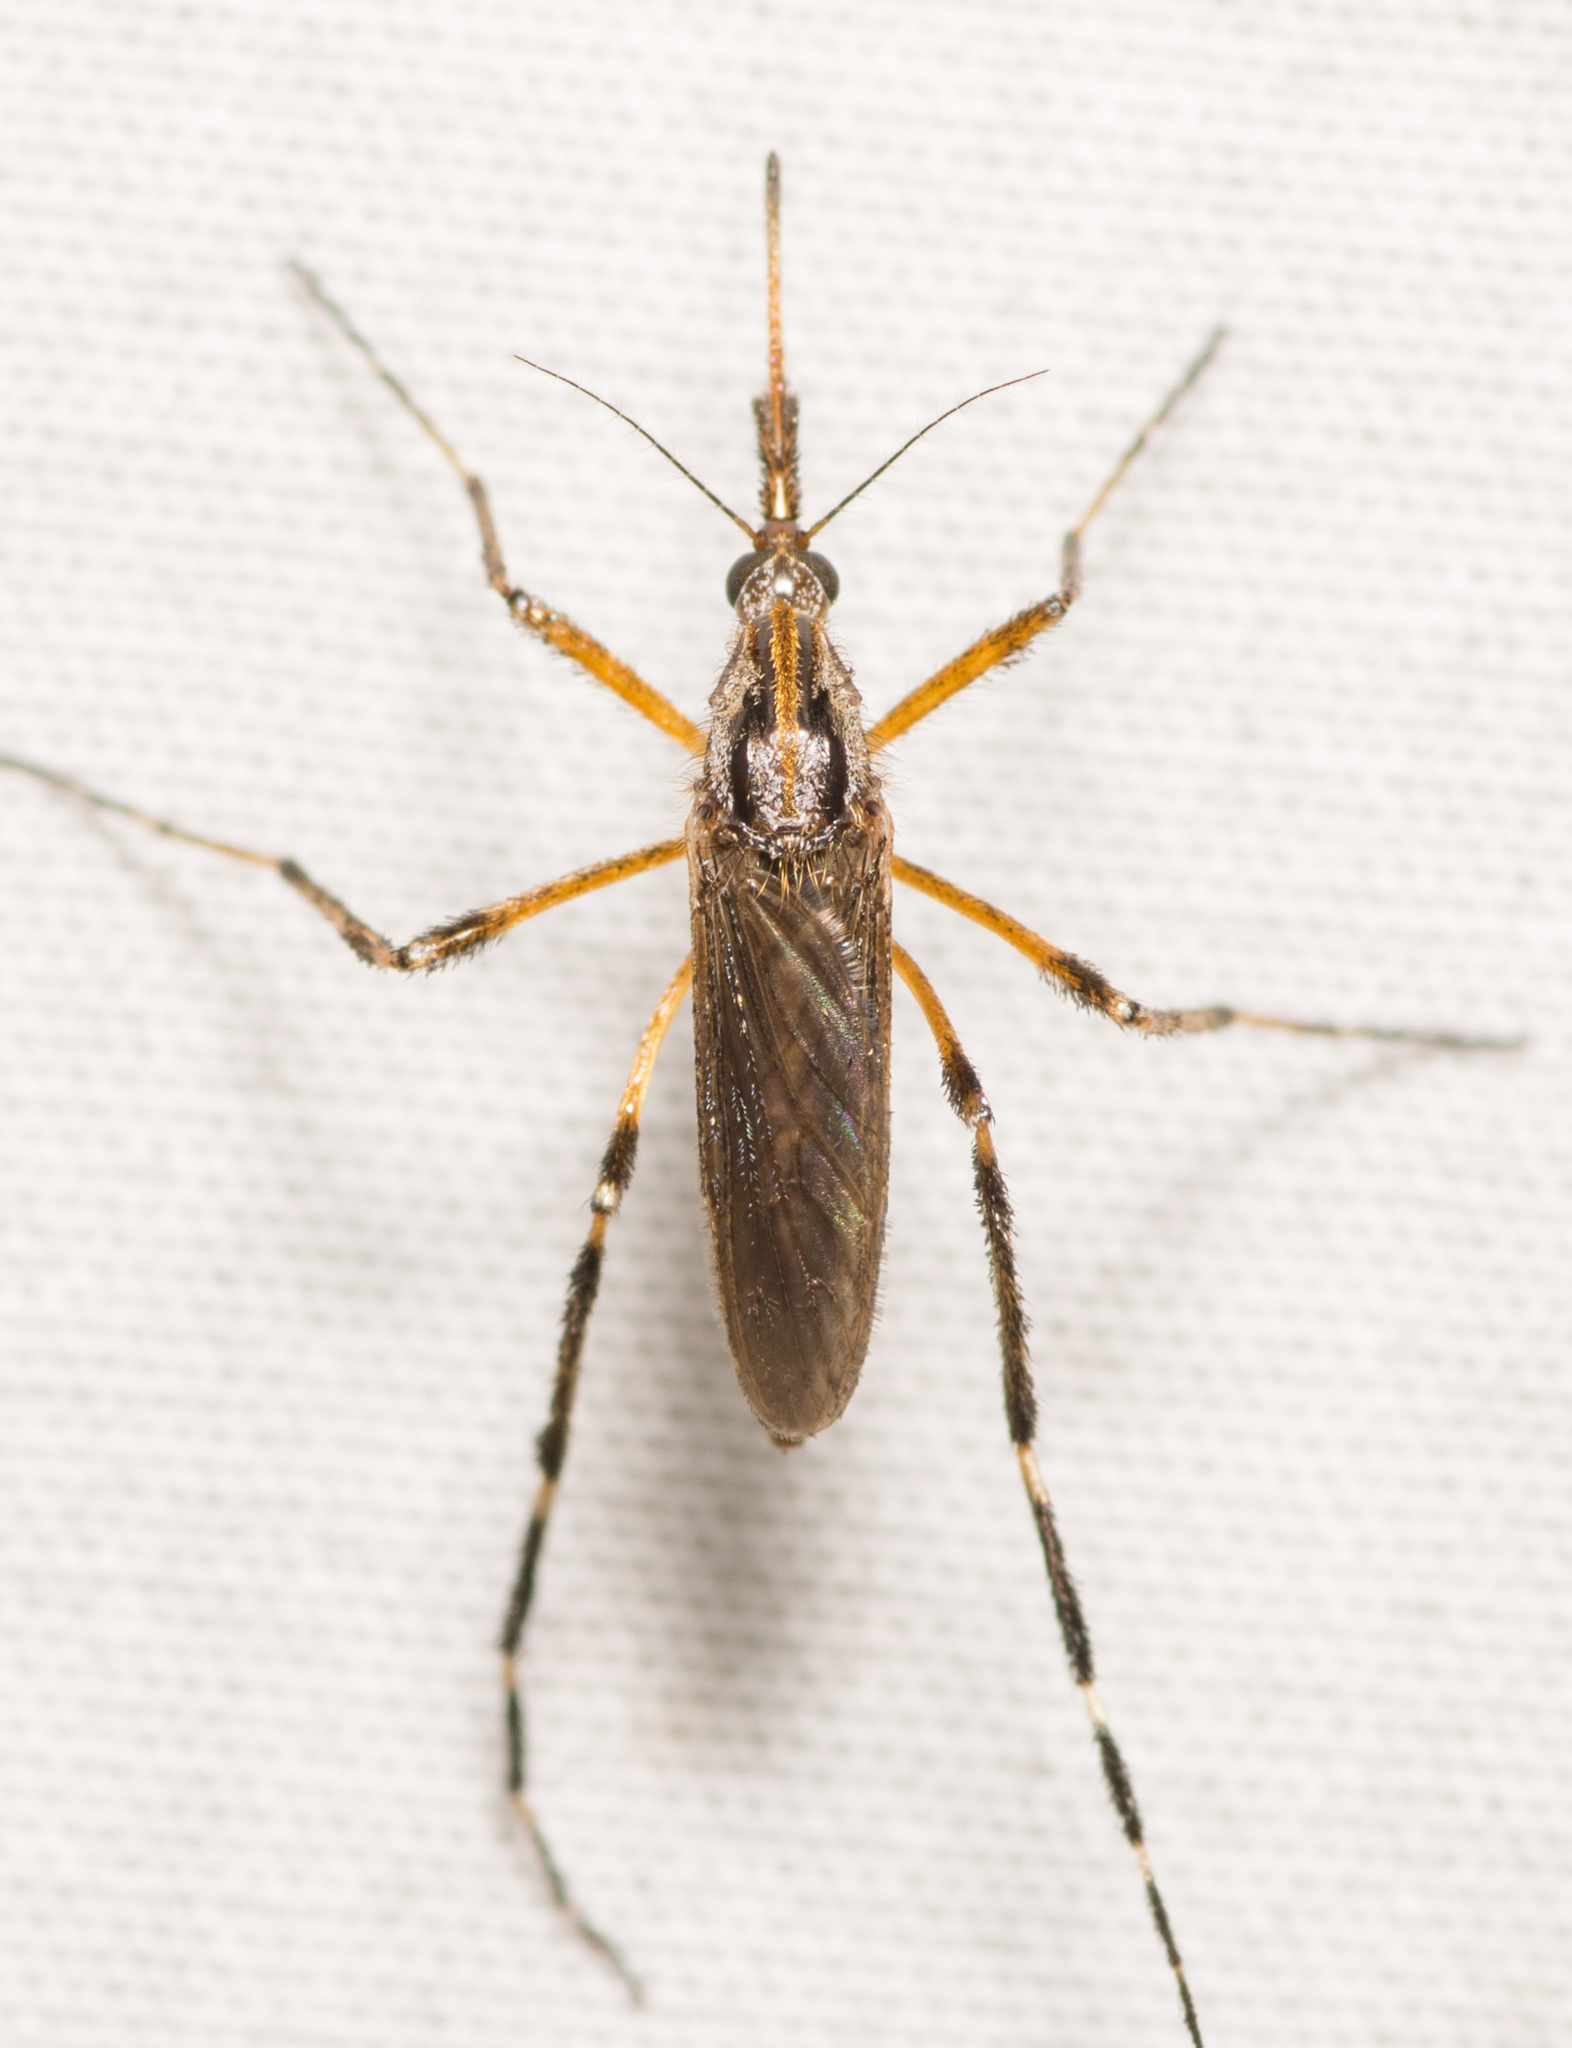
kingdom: Animalia
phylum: Arthropoda
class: Insecta
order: Diptera
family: Culicidae
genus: Psorophora
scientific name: Psorophora ciliata
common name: Gallinipper
